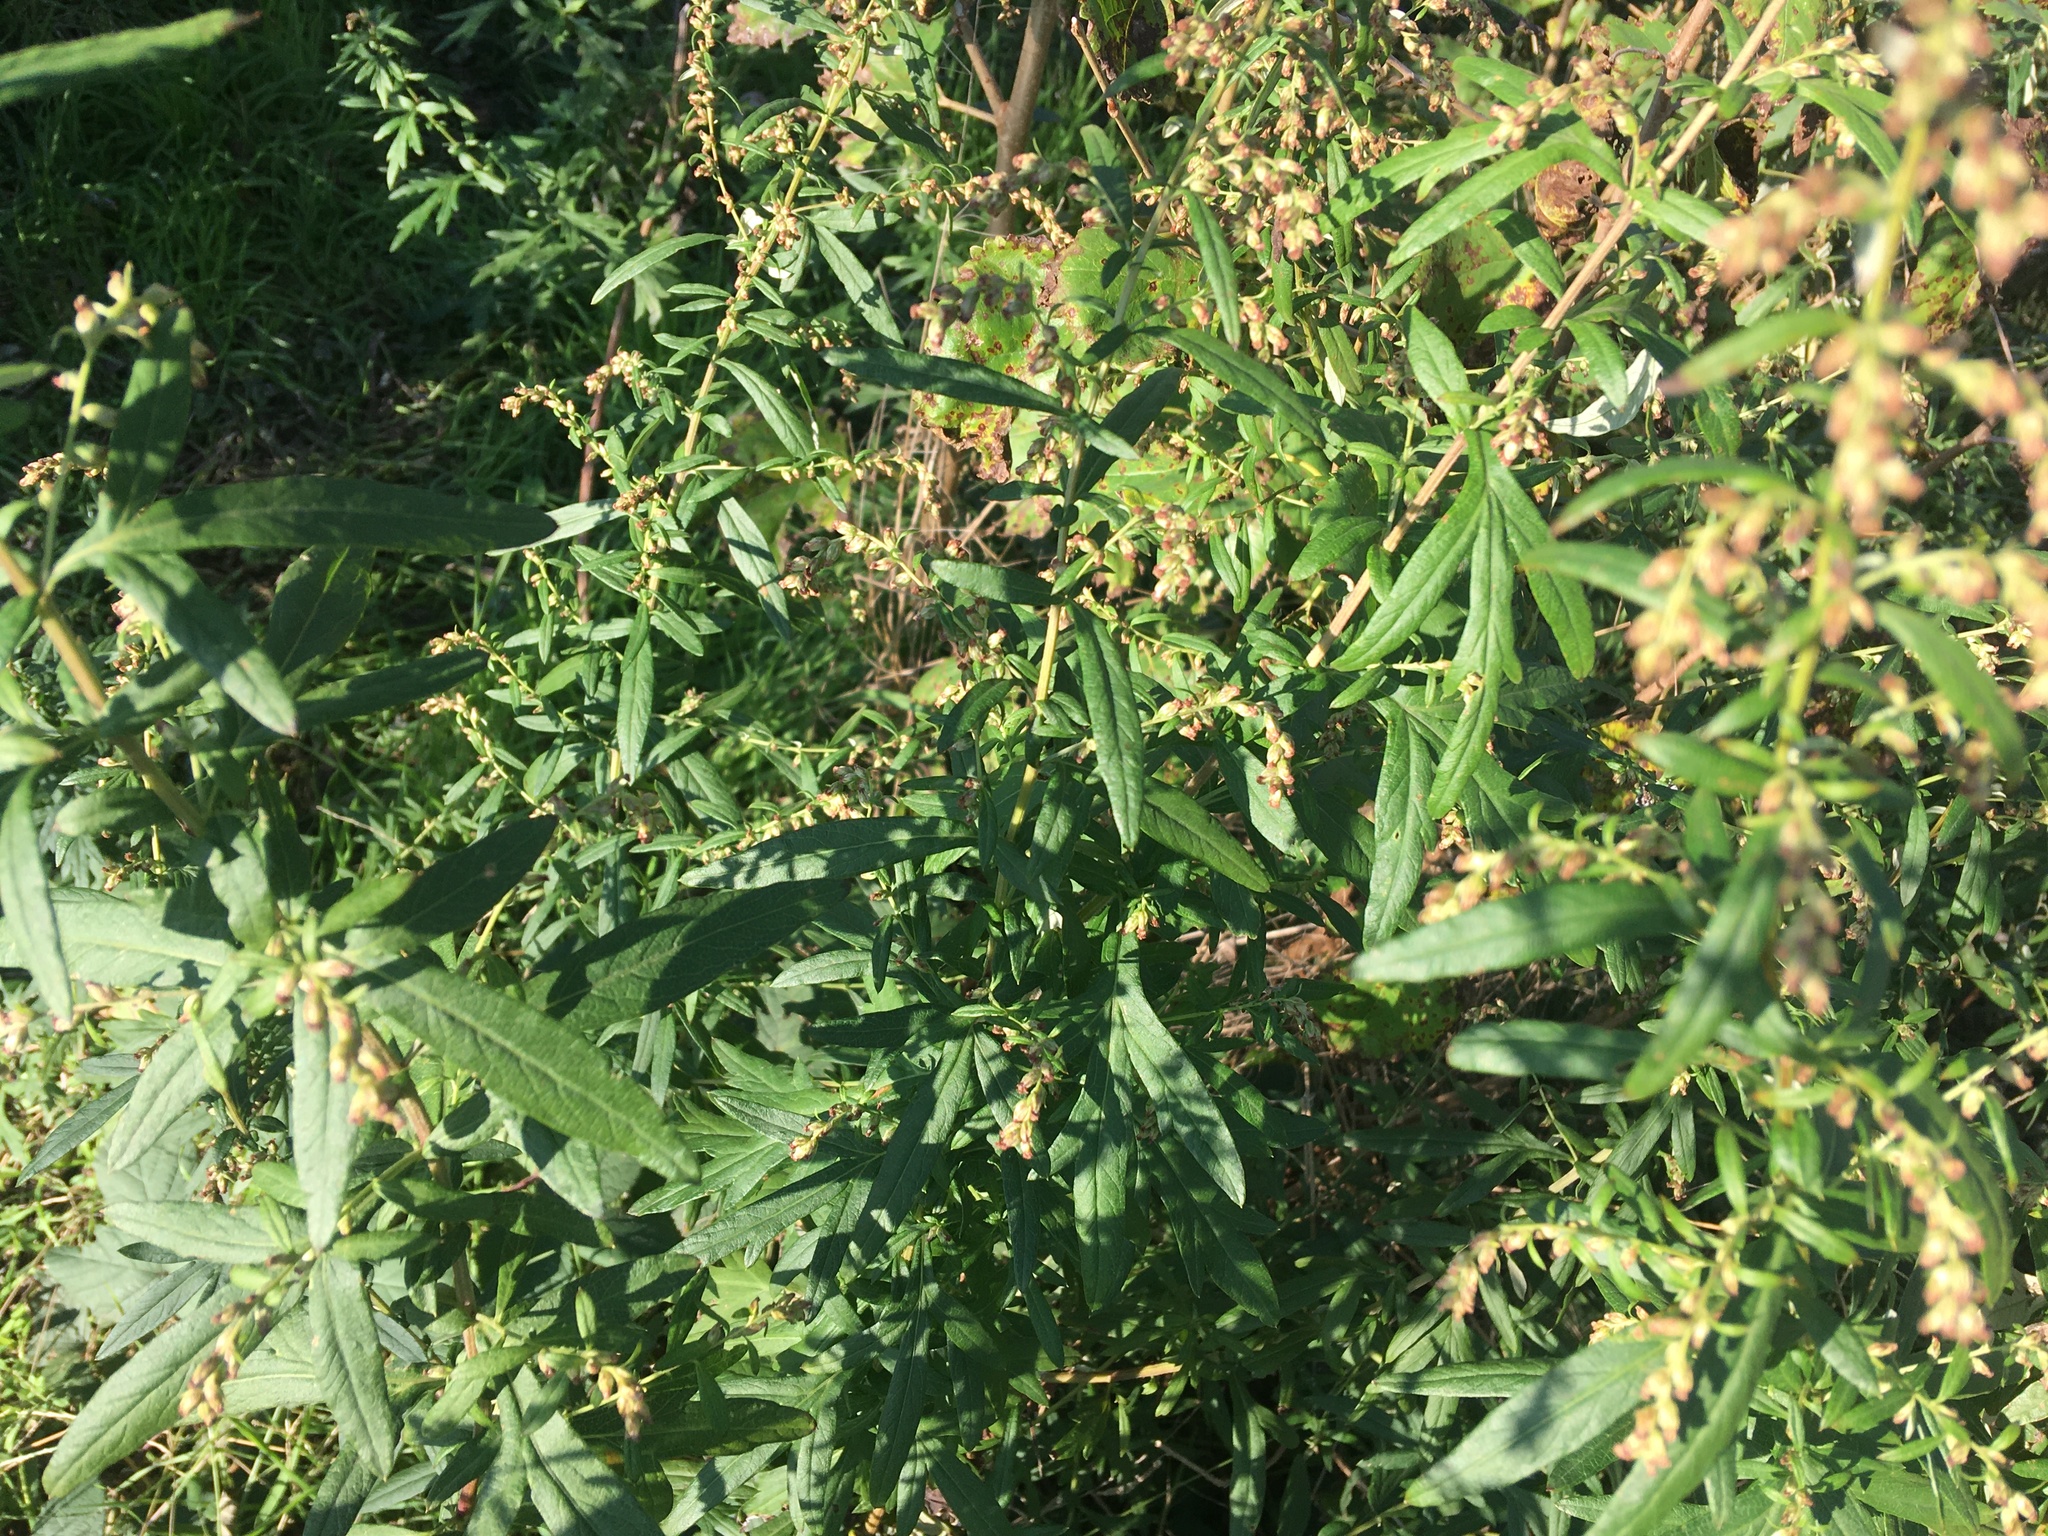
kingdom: Plantae
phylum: Tracheophyta
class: Magnoliopsida
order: Asterales
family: Asteraceae
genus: Artemisia
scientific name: Artemisia vulgaris
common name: Mugwort
